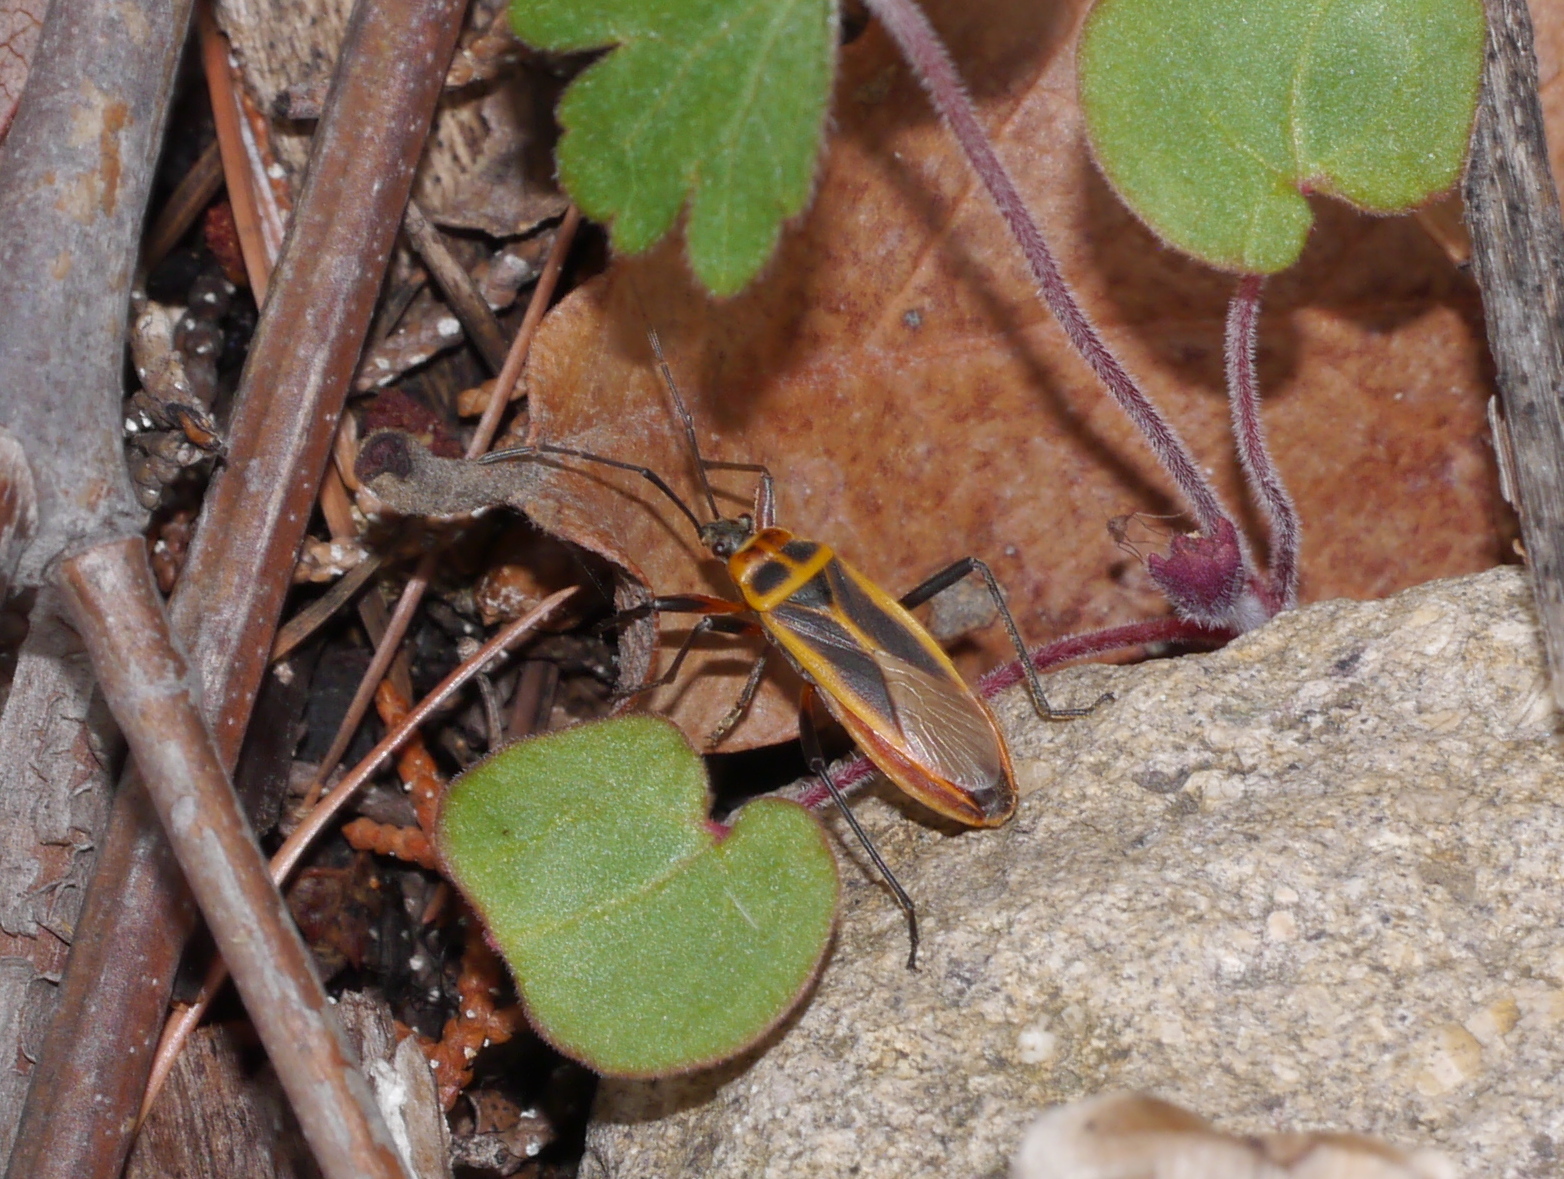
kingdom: Animalia
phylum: Arthropoda
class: Insecta
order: Hemiptera
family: Largidae
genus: Stenomacra
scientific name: Stenomacra marginella
